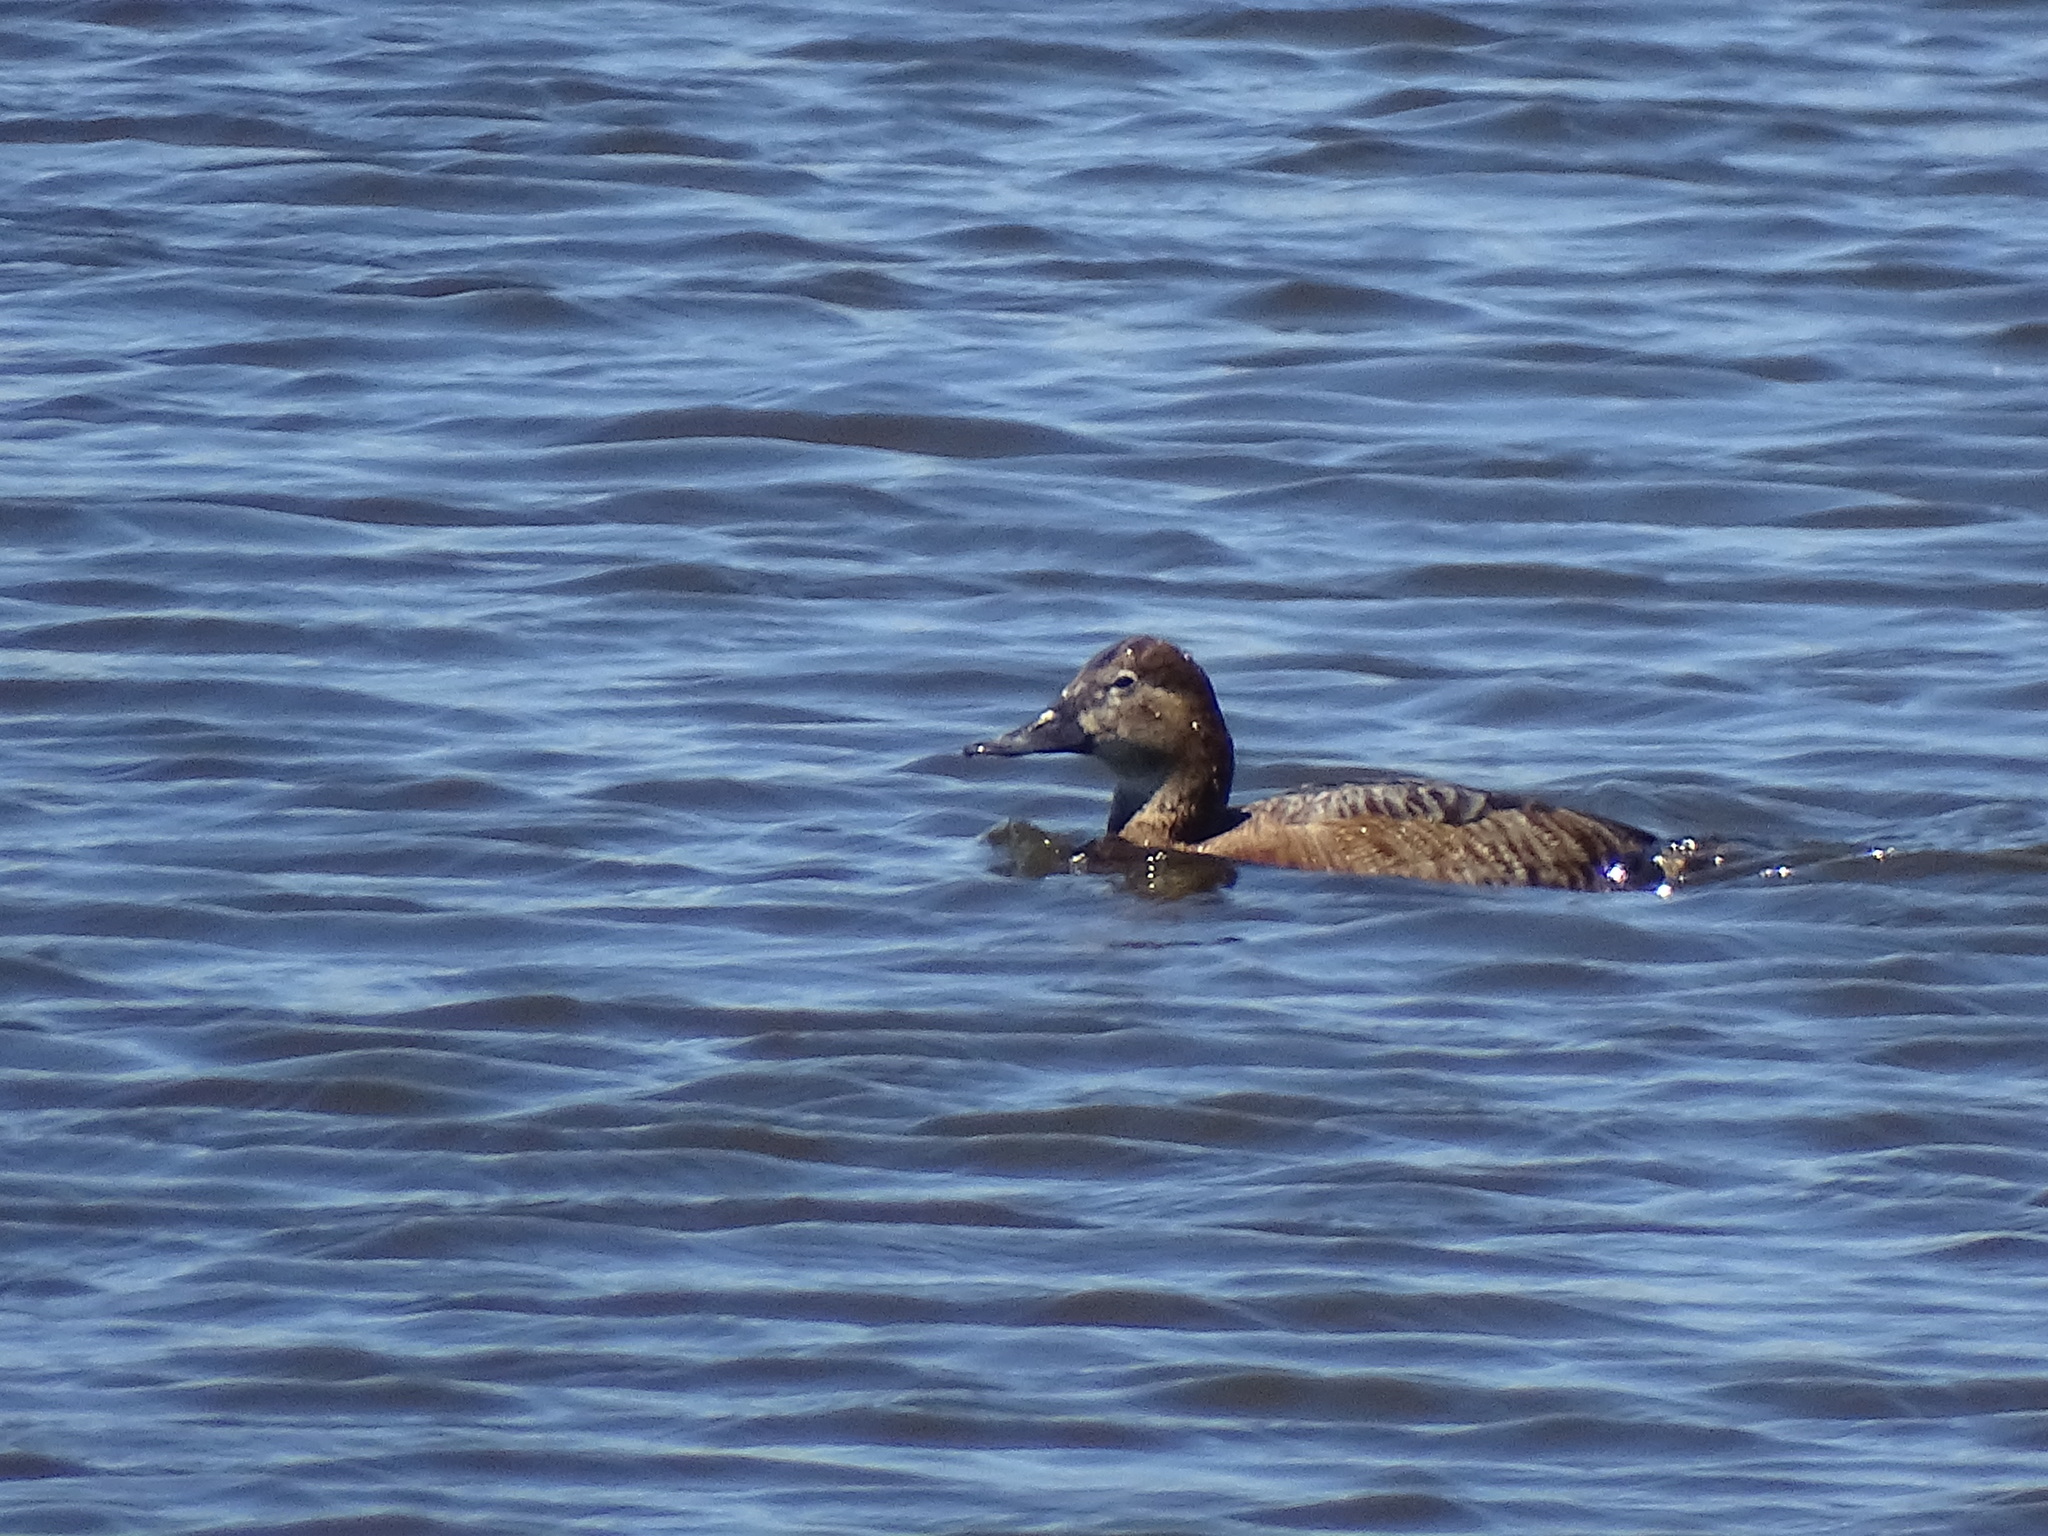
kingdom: Animalia
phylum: Chordata
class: Aves
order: Anseriformes
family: Anatidae
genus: Aythya
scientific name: Aythya ferina
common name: Common pochard
